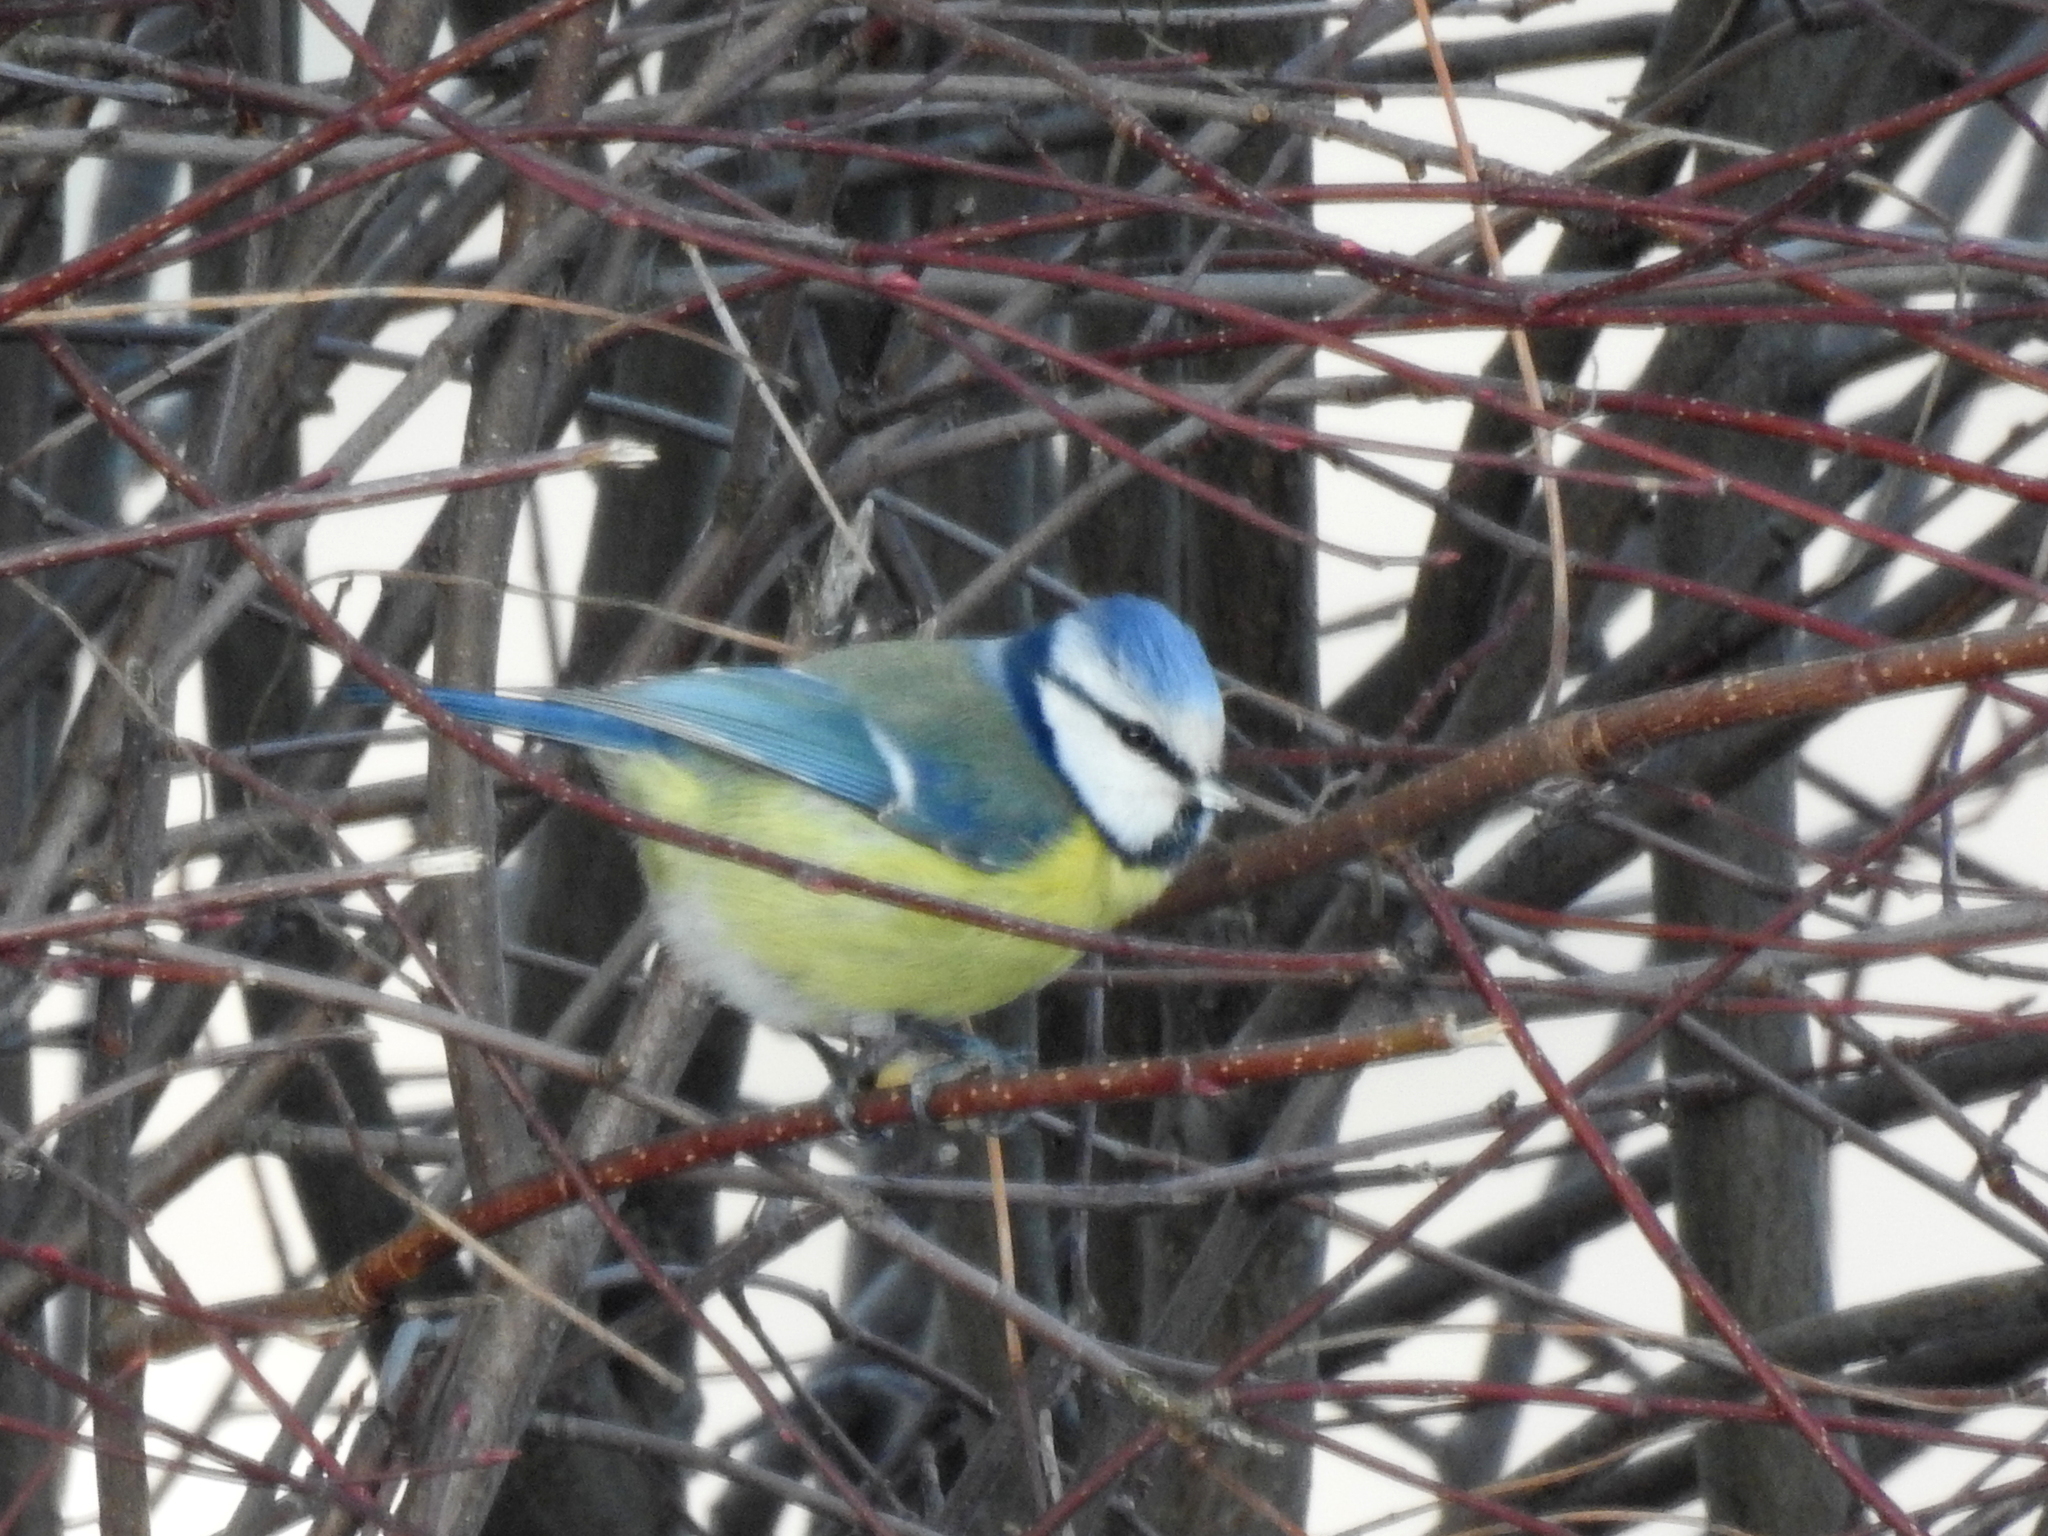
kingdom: Animalia
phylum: Chordata
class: Aves
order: Passeriformes
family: Paridae
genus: Cyanistes
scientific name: Cyanistes caeruleus
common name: Eurasian blue tit
